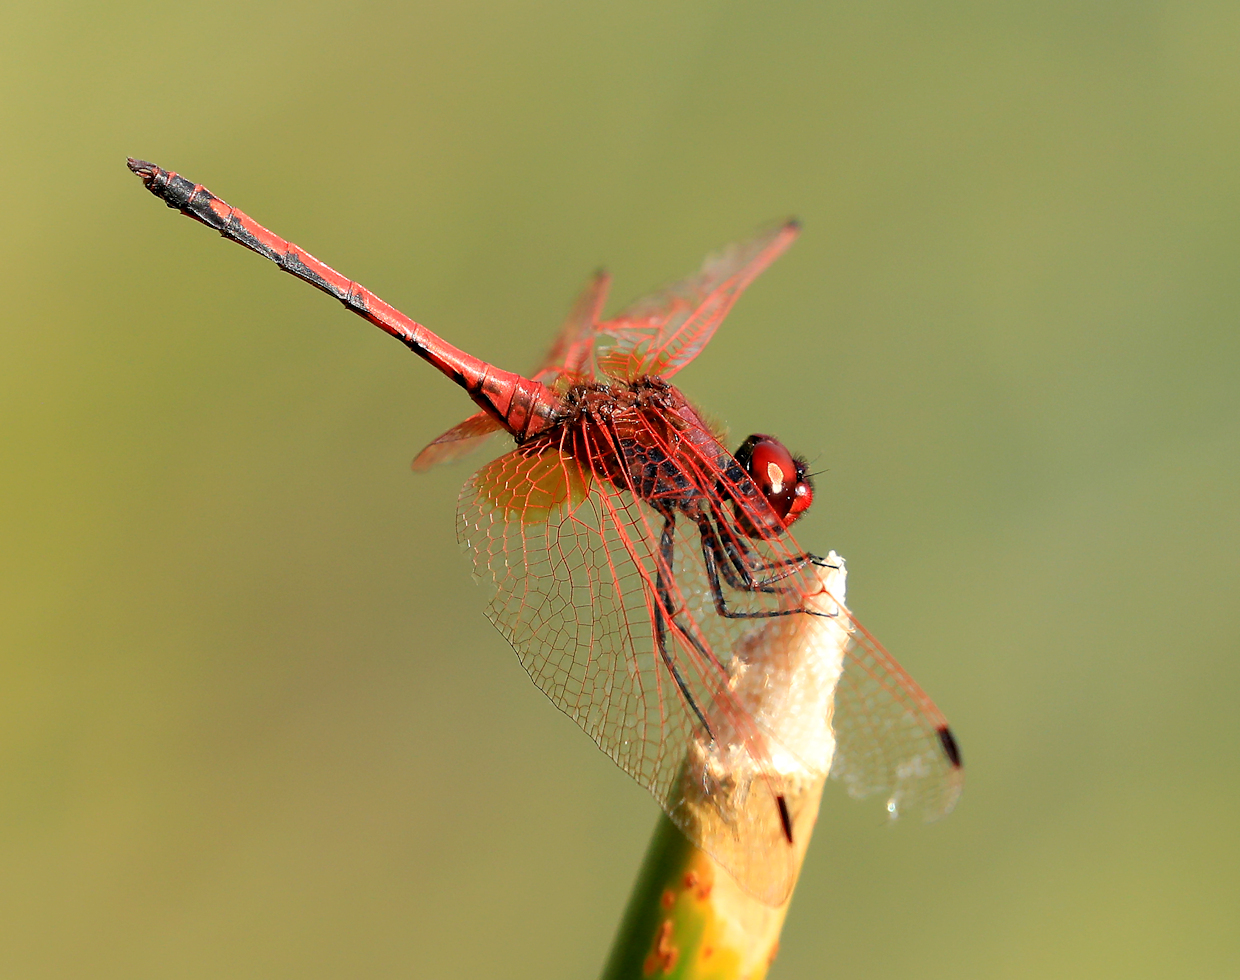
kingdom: Animalia
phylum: Arthropoda
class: Insecta
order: Odonata
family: Libellulidae
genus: Trithemis
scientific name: Trithemis arteriosa
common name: Red-veined dropwing
